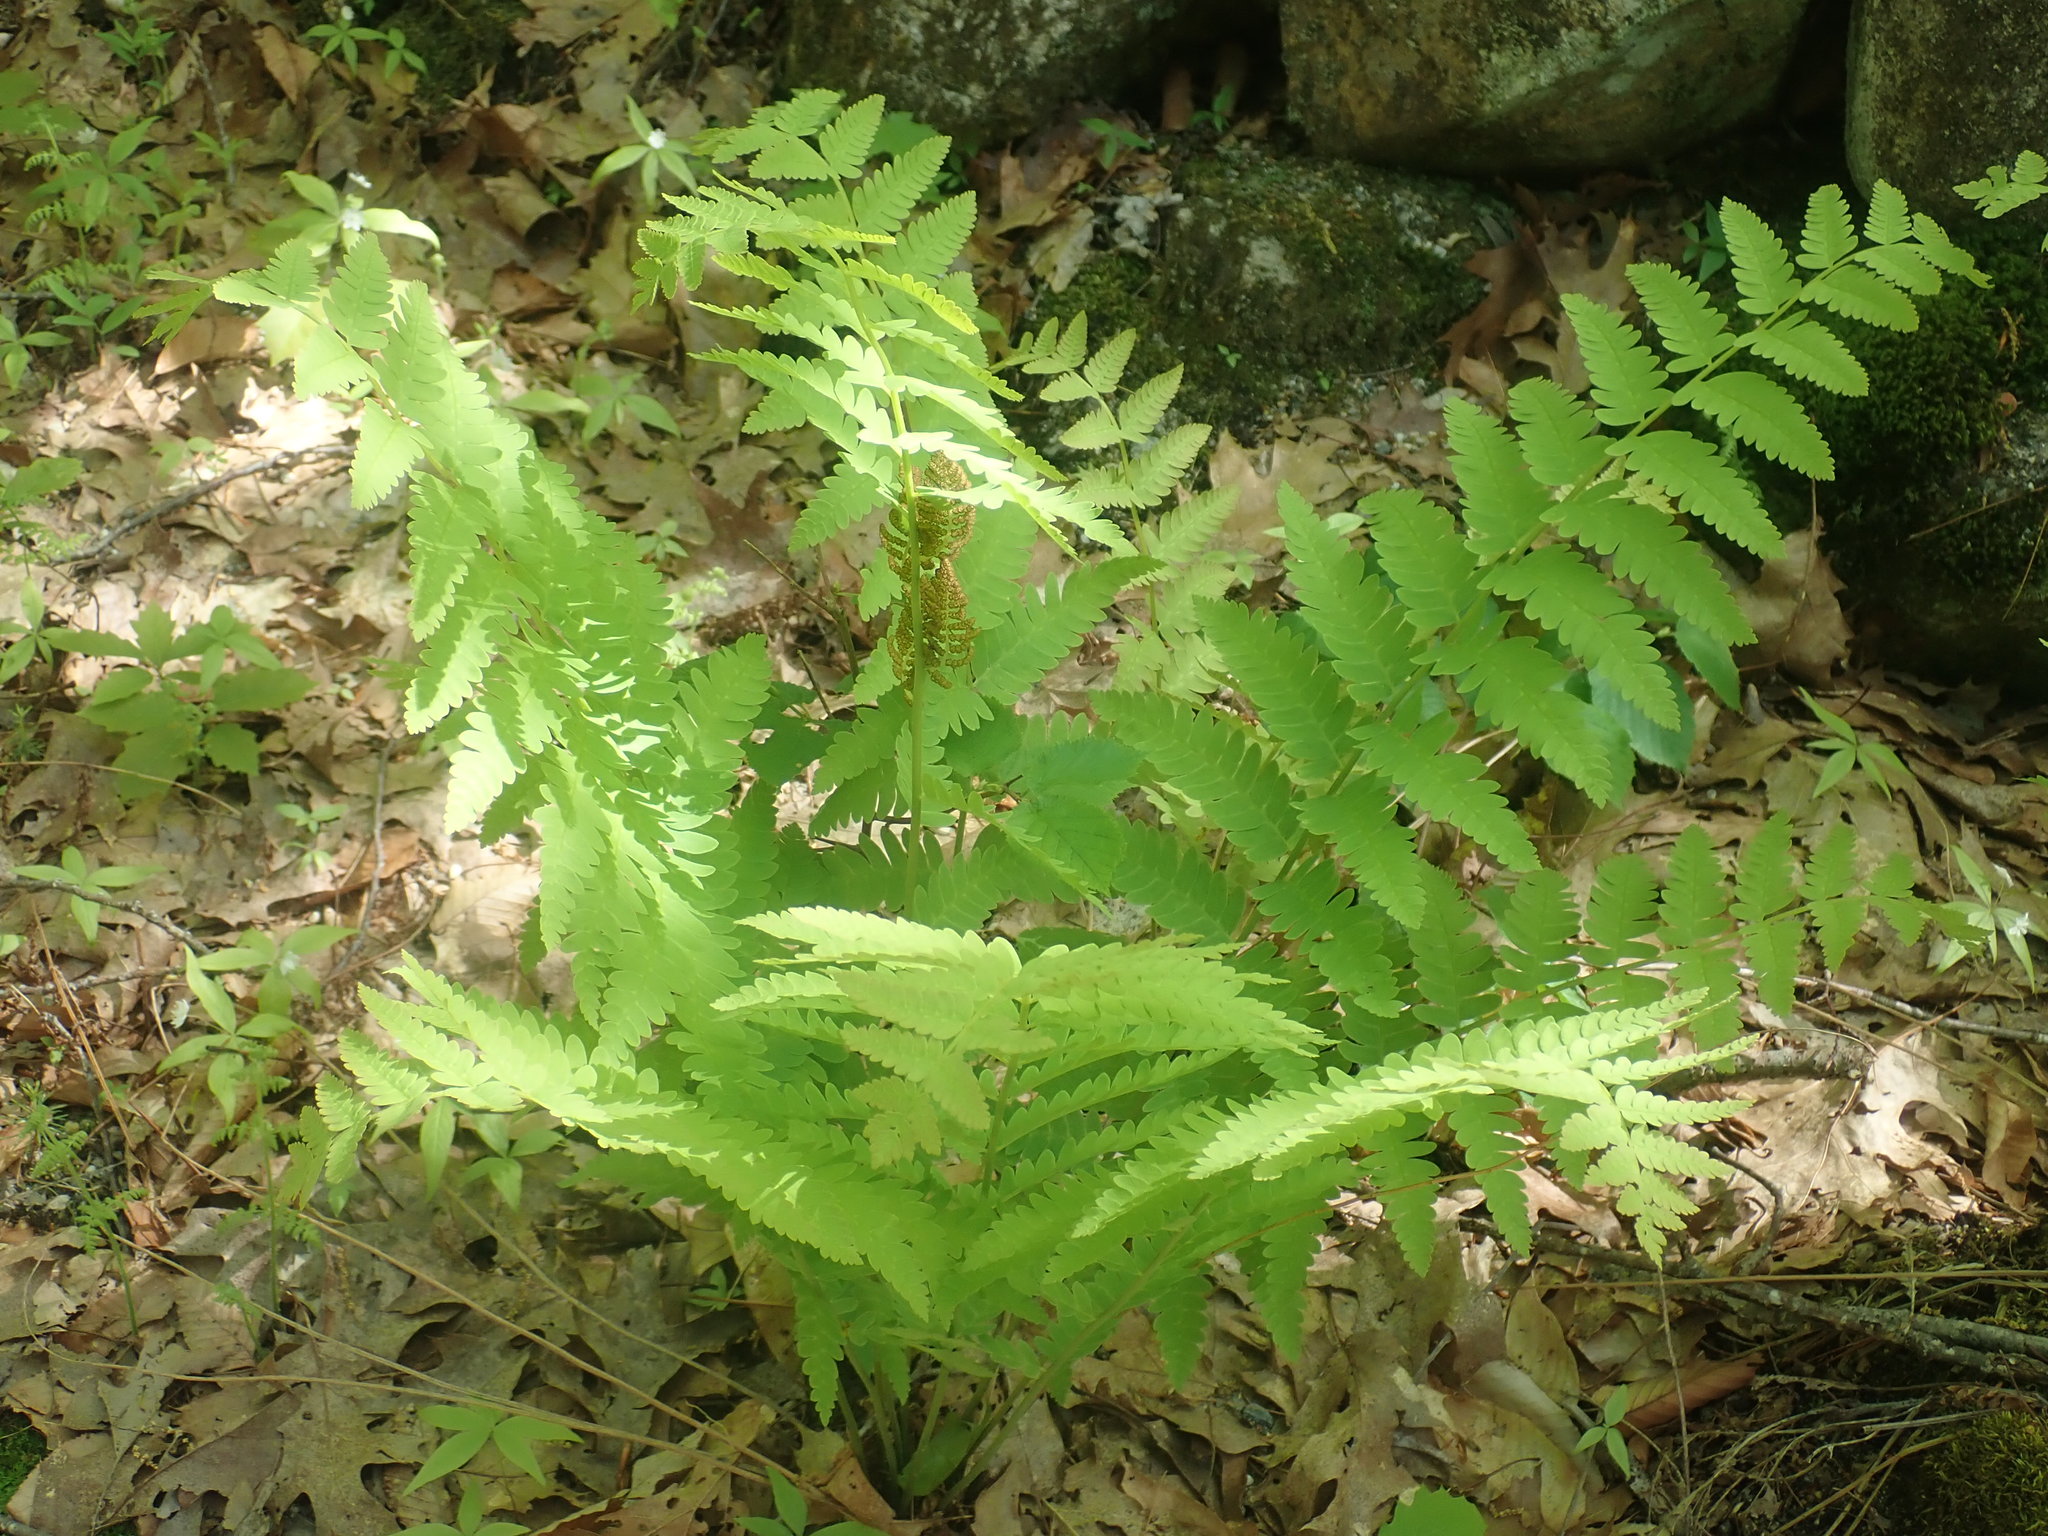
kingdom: Plantae
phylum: Tracheophyta
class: Polypodiopsida
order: Osmundales
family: Osmundaceae
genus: Claytosmunda
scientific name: Claytosmunda claytoniana
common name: Clayton's fern
